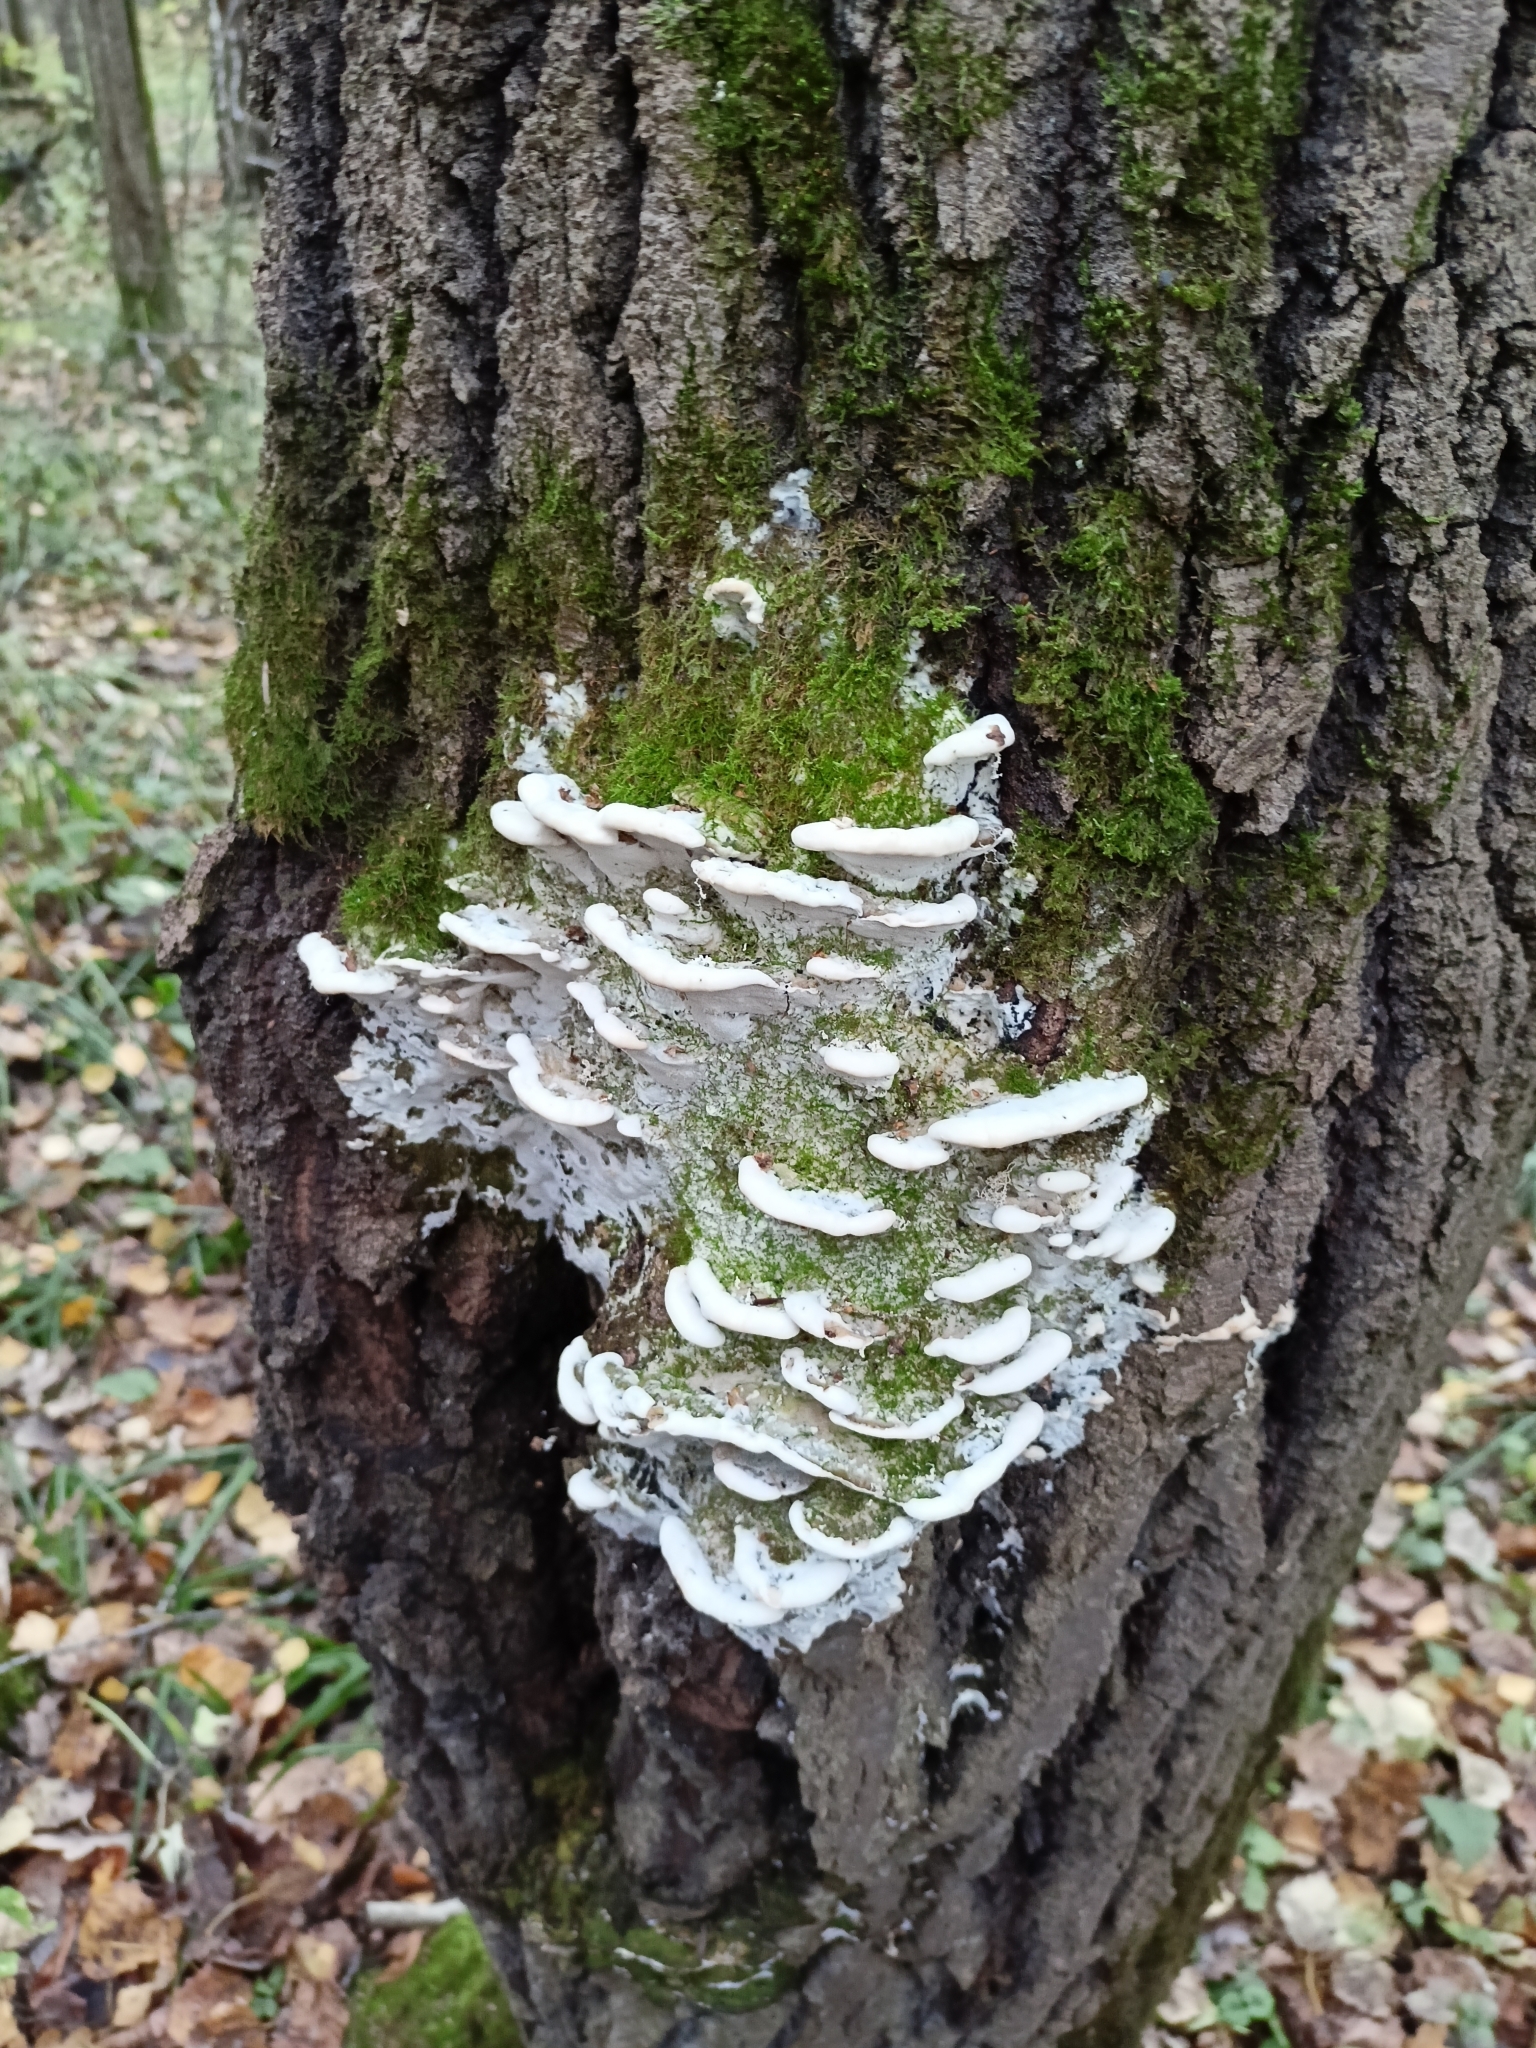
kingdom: Fungi
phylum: Basidiomycota
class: Agaricomycetes
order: Hymenochaetales
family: Oxyporaceae
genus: Oxyporus
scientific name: Oxyporus populinus
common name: Poplar bracket
